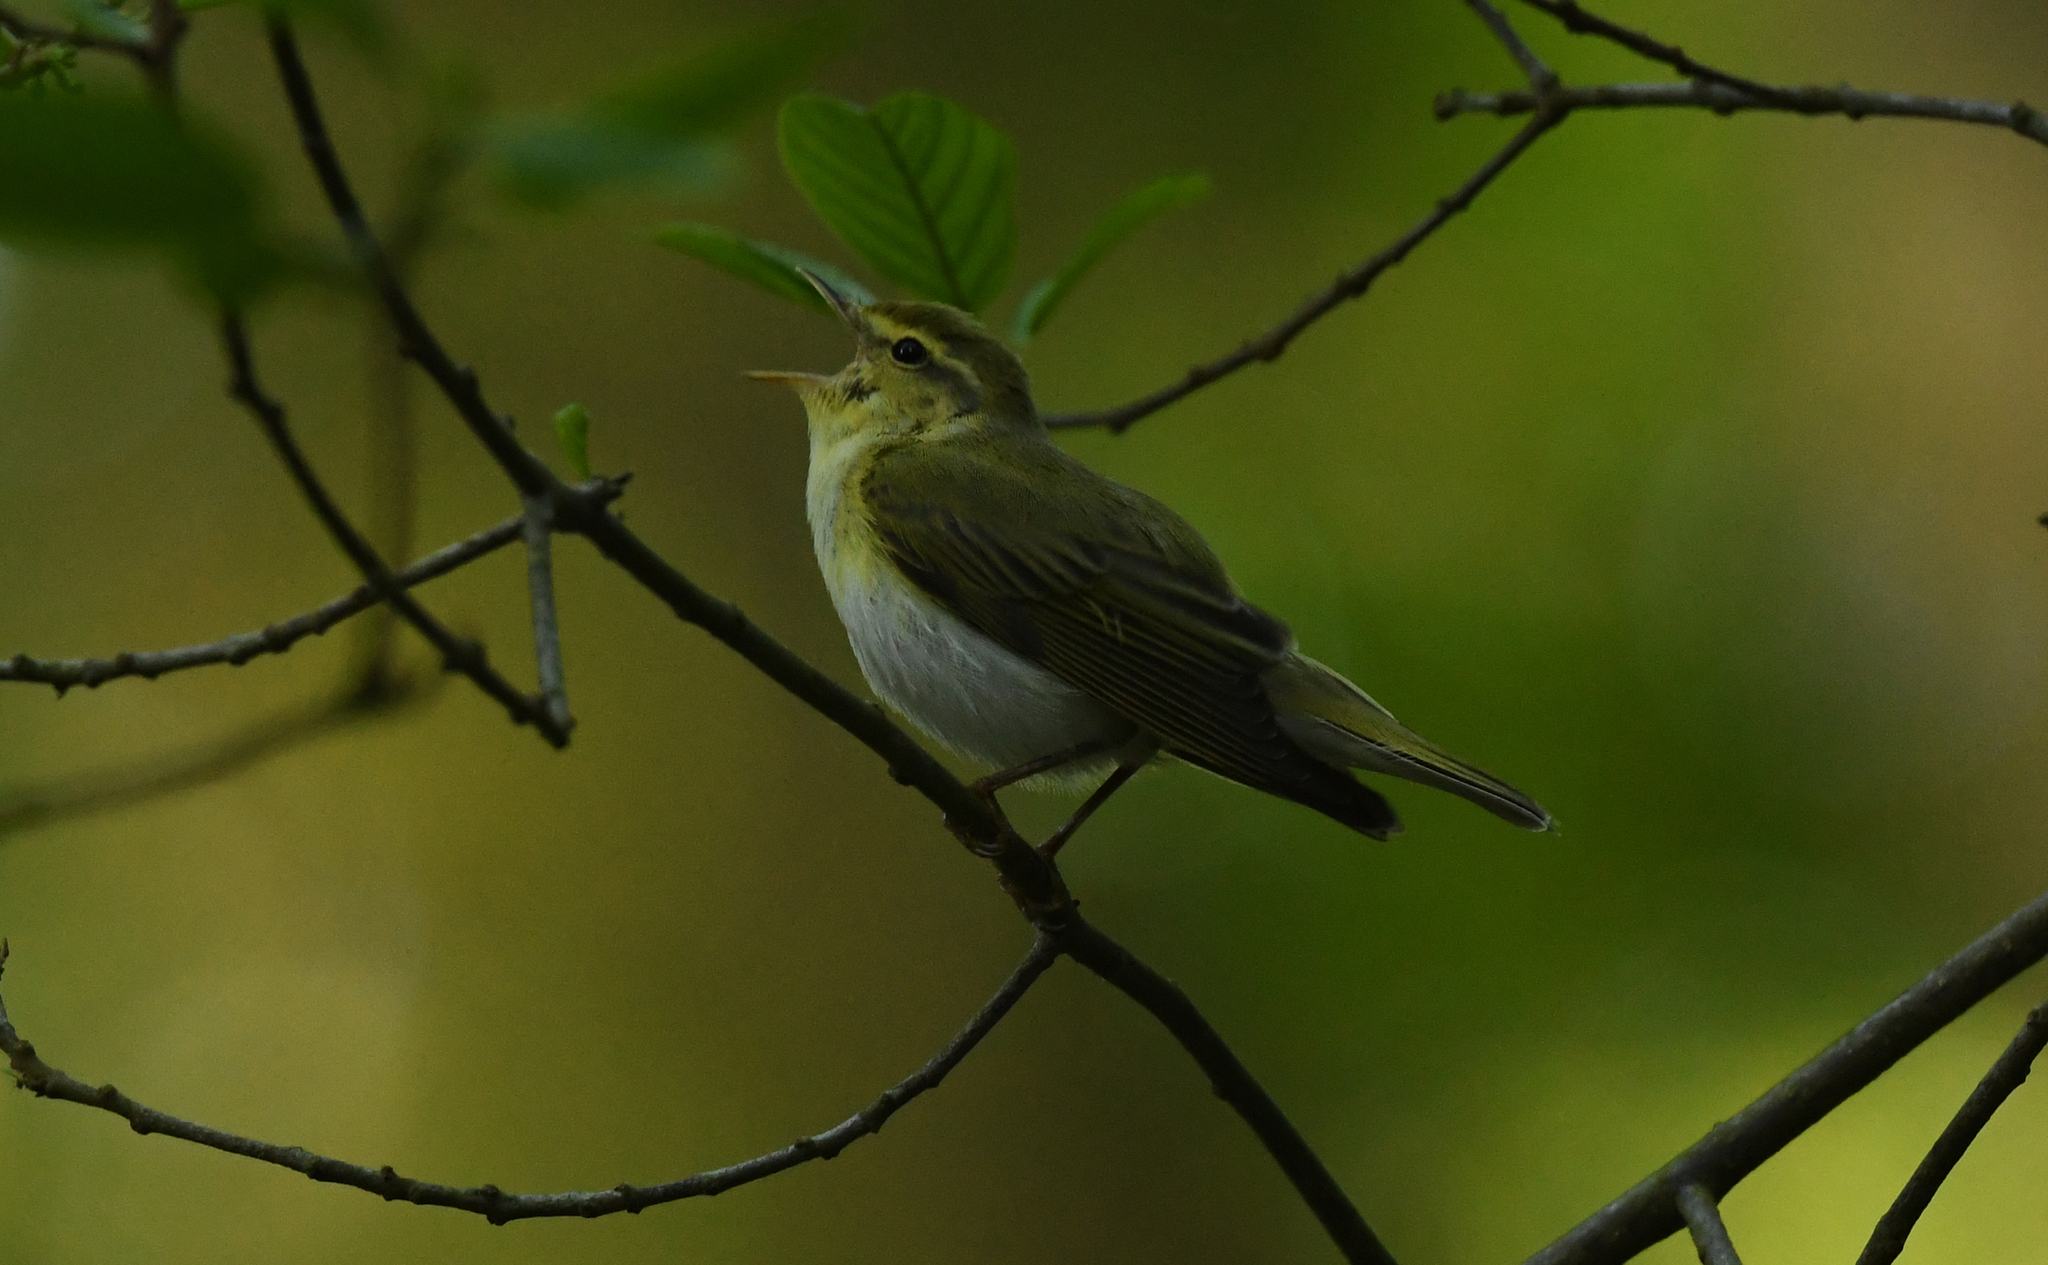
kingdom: Animalia
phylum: Chordata
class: Aves
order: Passeriformes
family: Phylloscopidae
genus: Phylloscopus
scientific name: Phylloscopus sibillatrix
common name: Wood warbler
